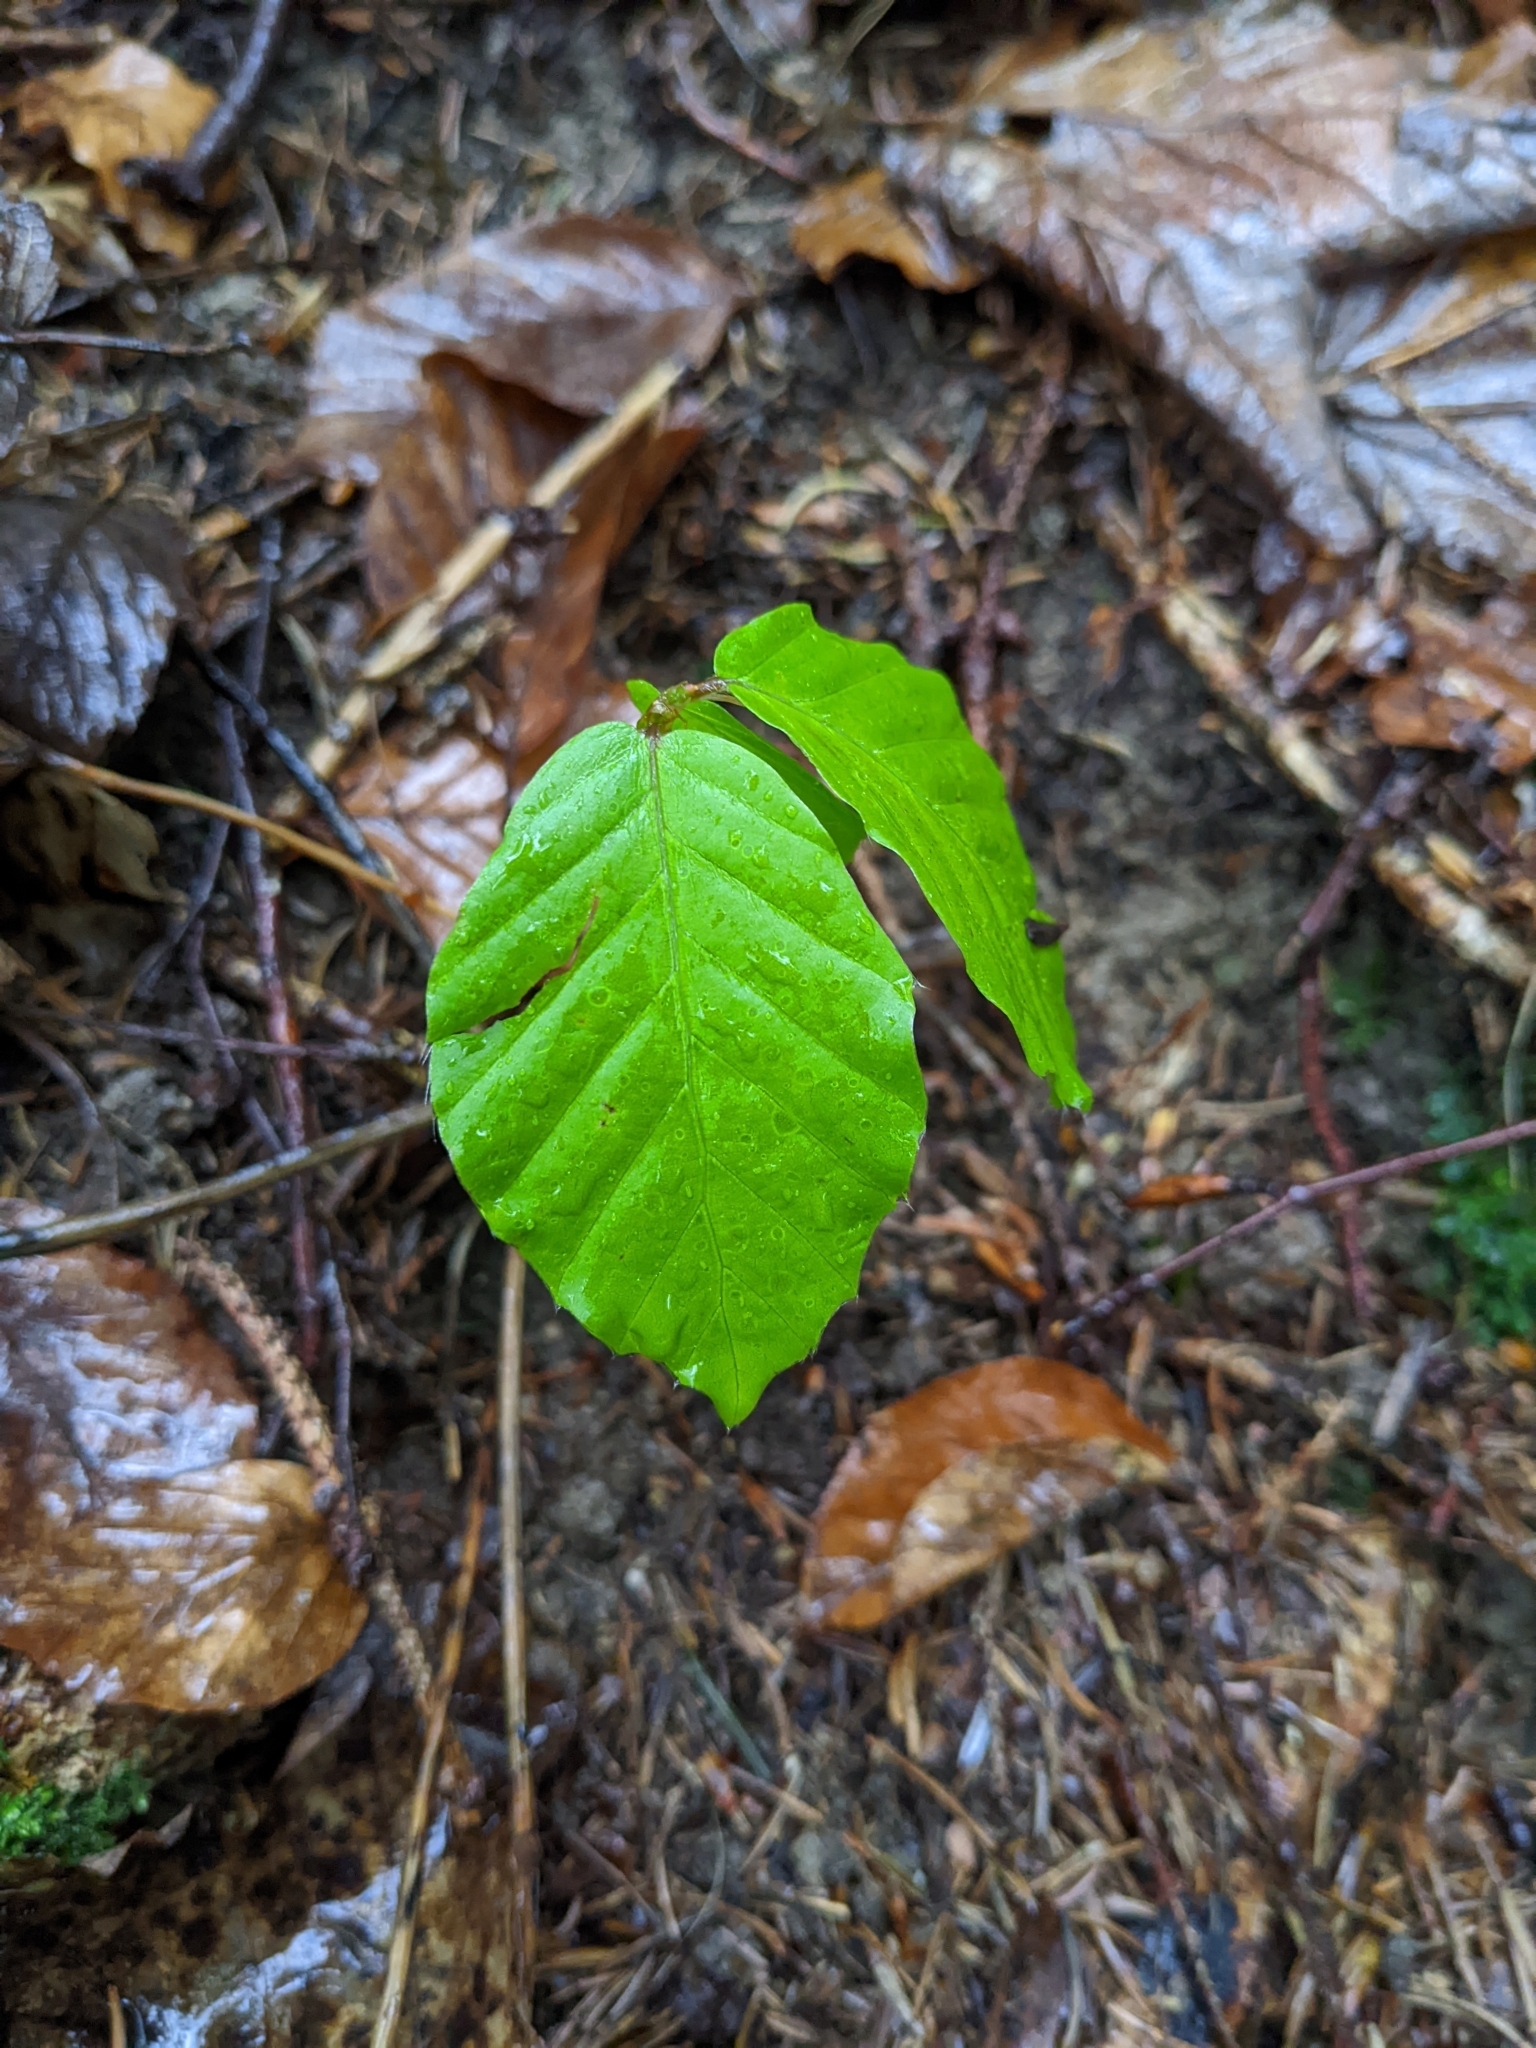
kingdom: Plantae
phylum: Tracheophyta
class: Magnoliopsida
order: Fagales
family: Fagaceae
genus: Fagus
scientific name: Fagus sylvatica
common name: Beech
